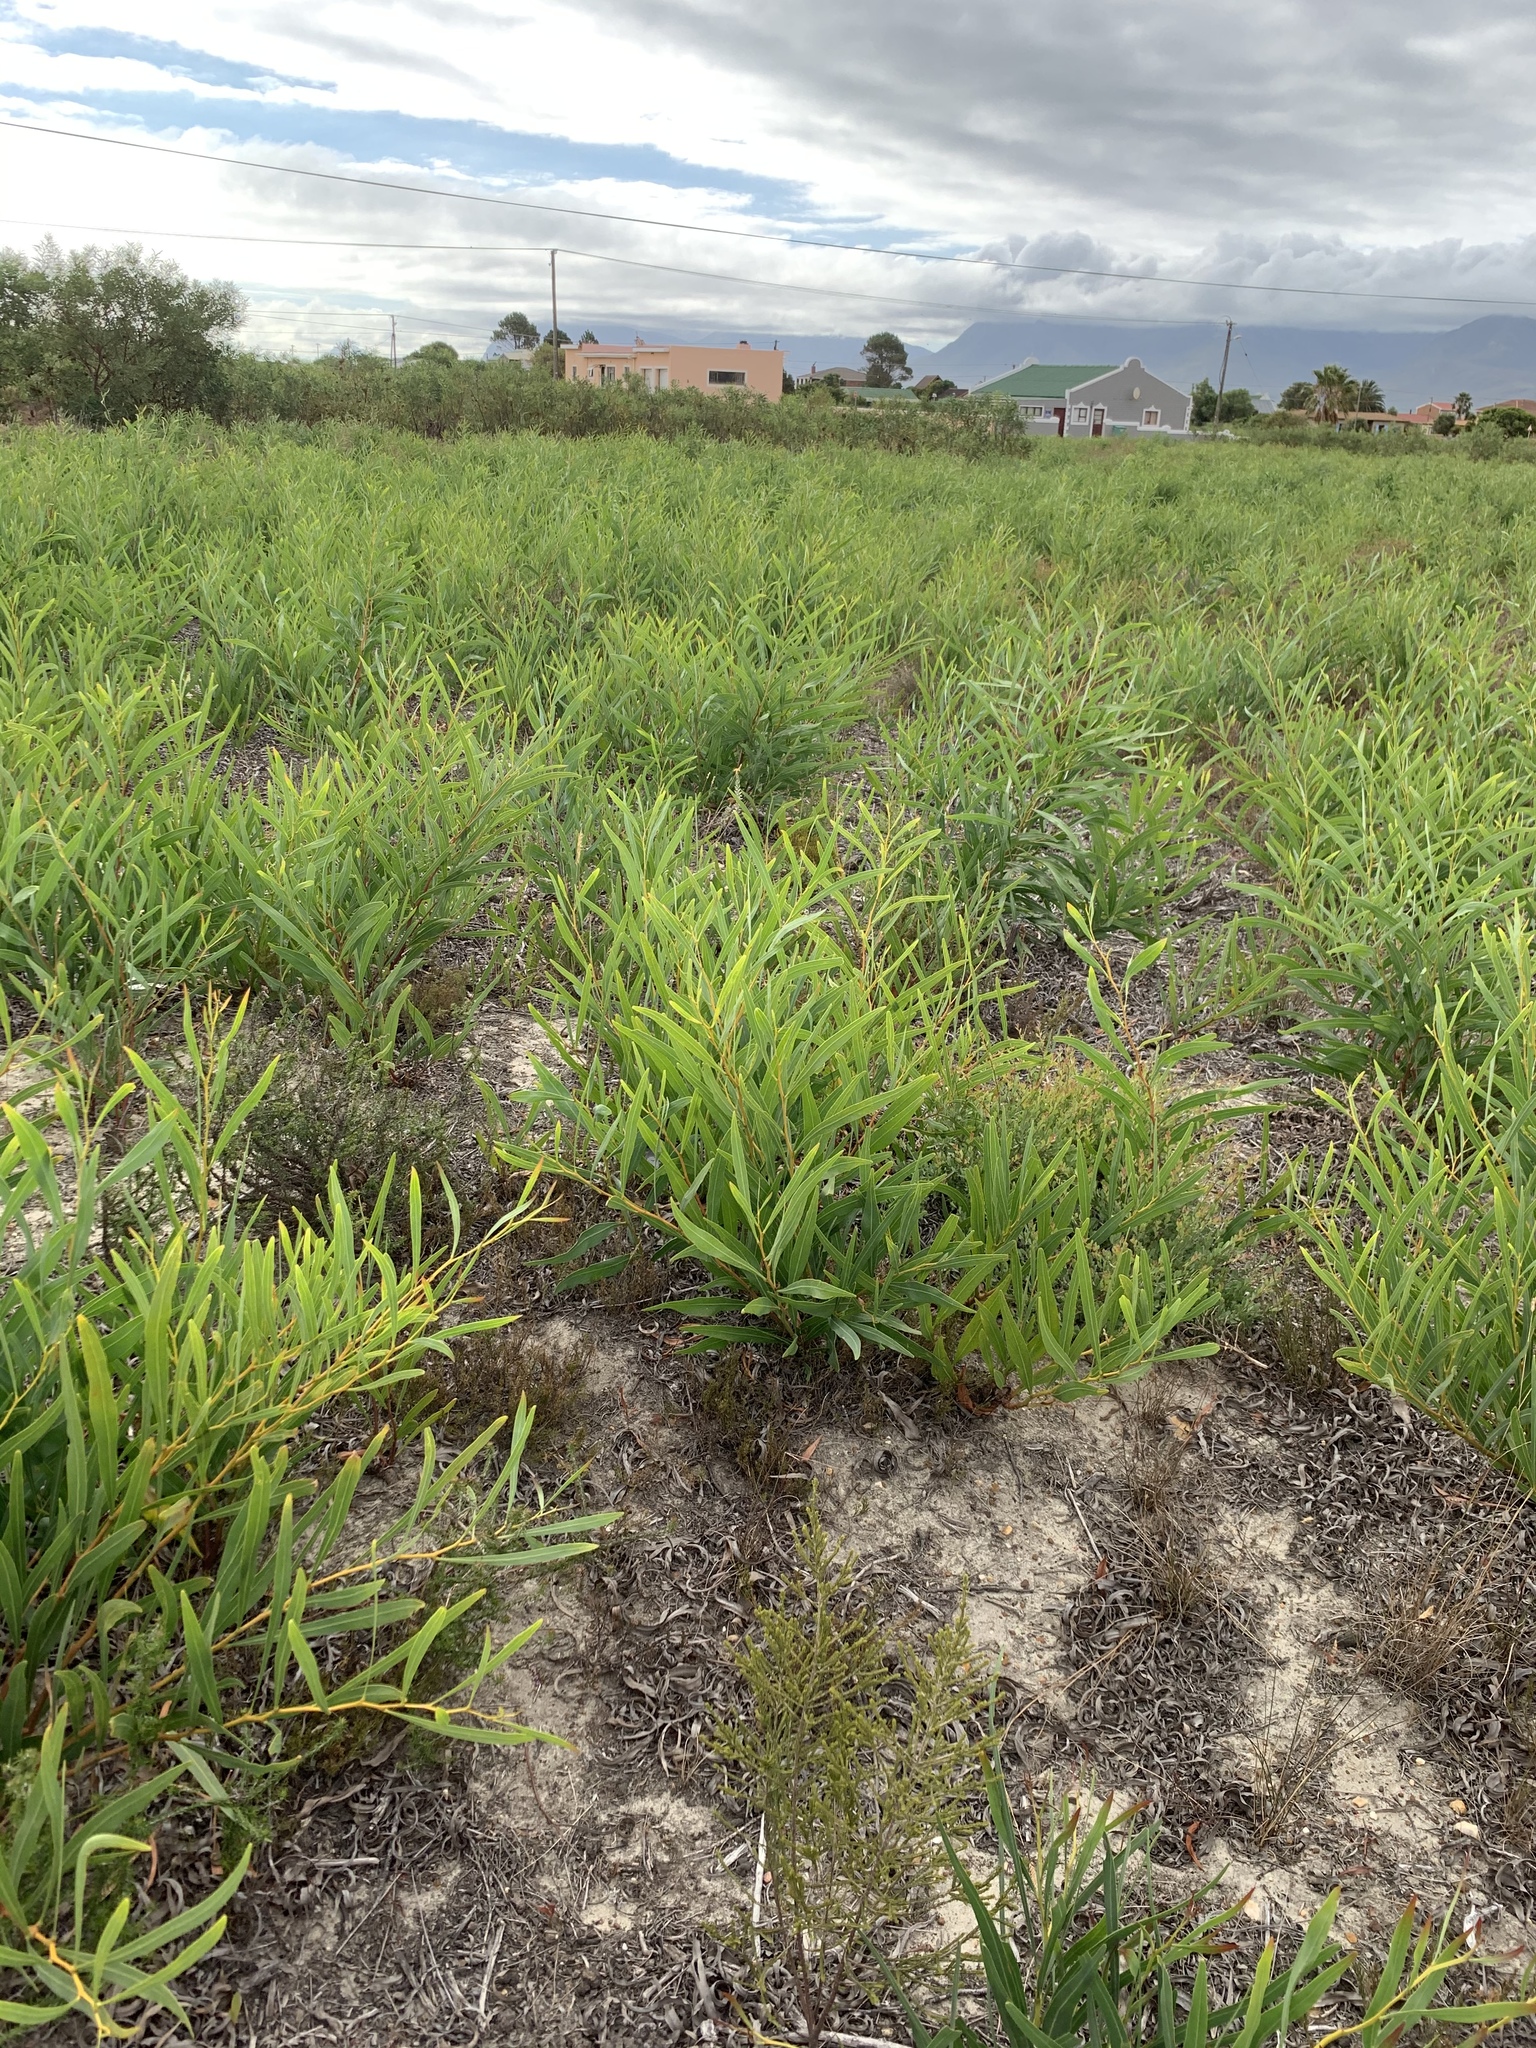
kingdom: Plantae
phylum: Tracheophyta
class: Magnoliopsida
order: Fabales
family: Fabaceae
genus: Acacia
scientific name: Acacia saligna
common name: Orange wattle
